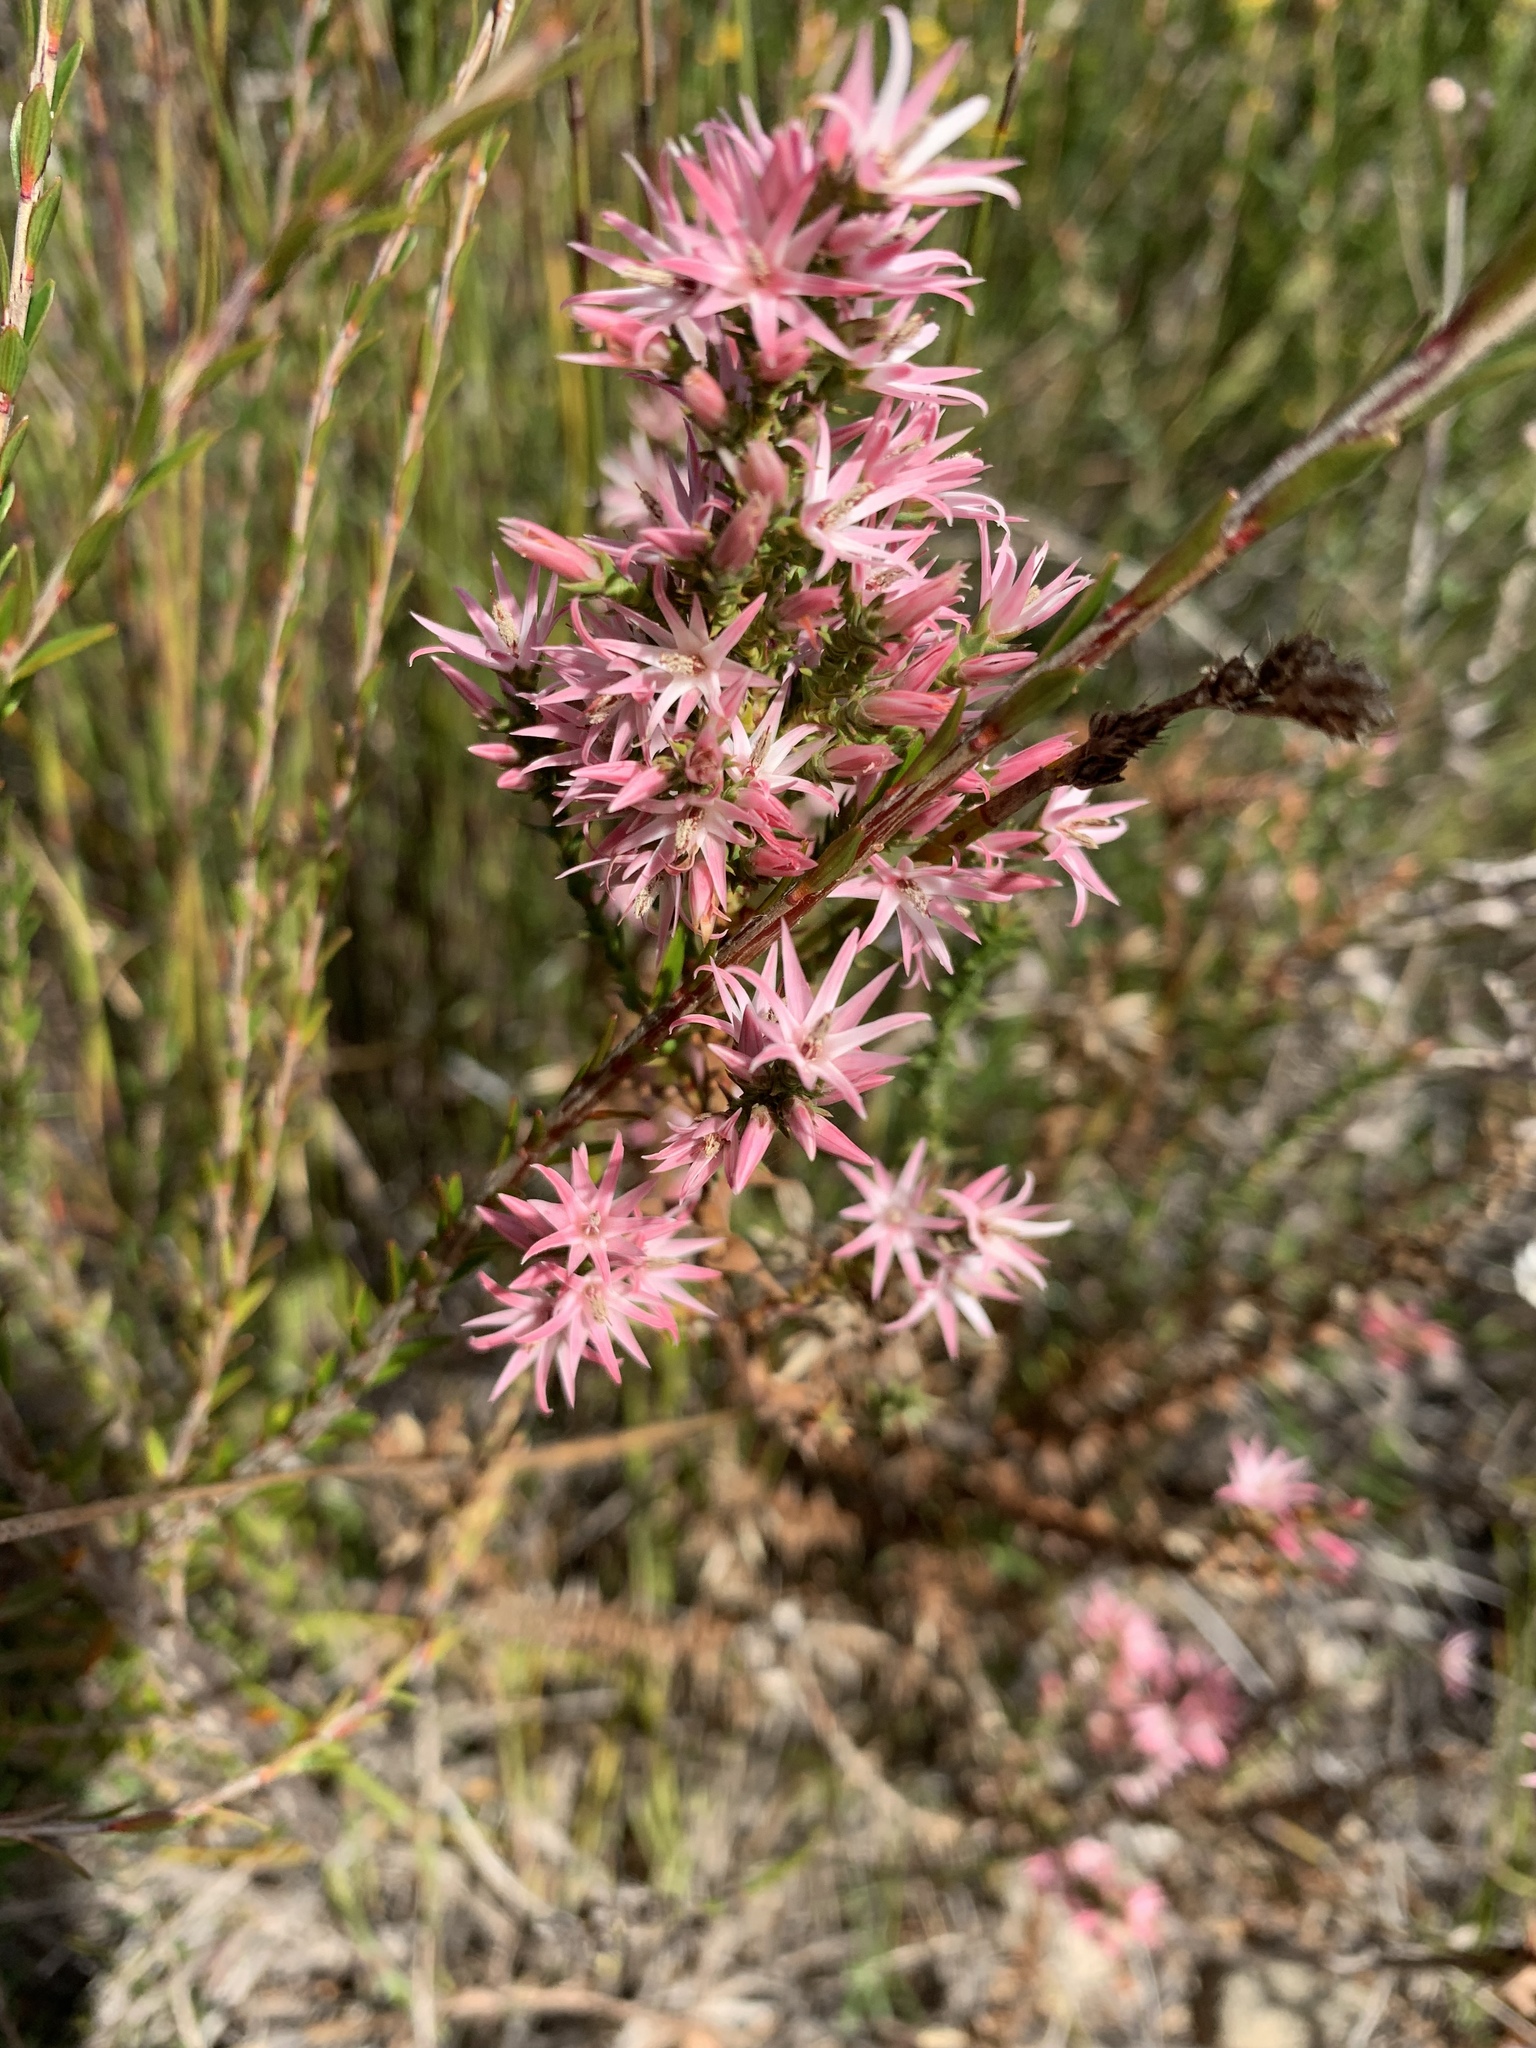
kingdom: Plantae
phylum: Tracheophyta
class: Magnoliopsida
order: Ericales
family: Ericaceae
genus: Sprengelia
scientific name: Sprengelia incarnata
